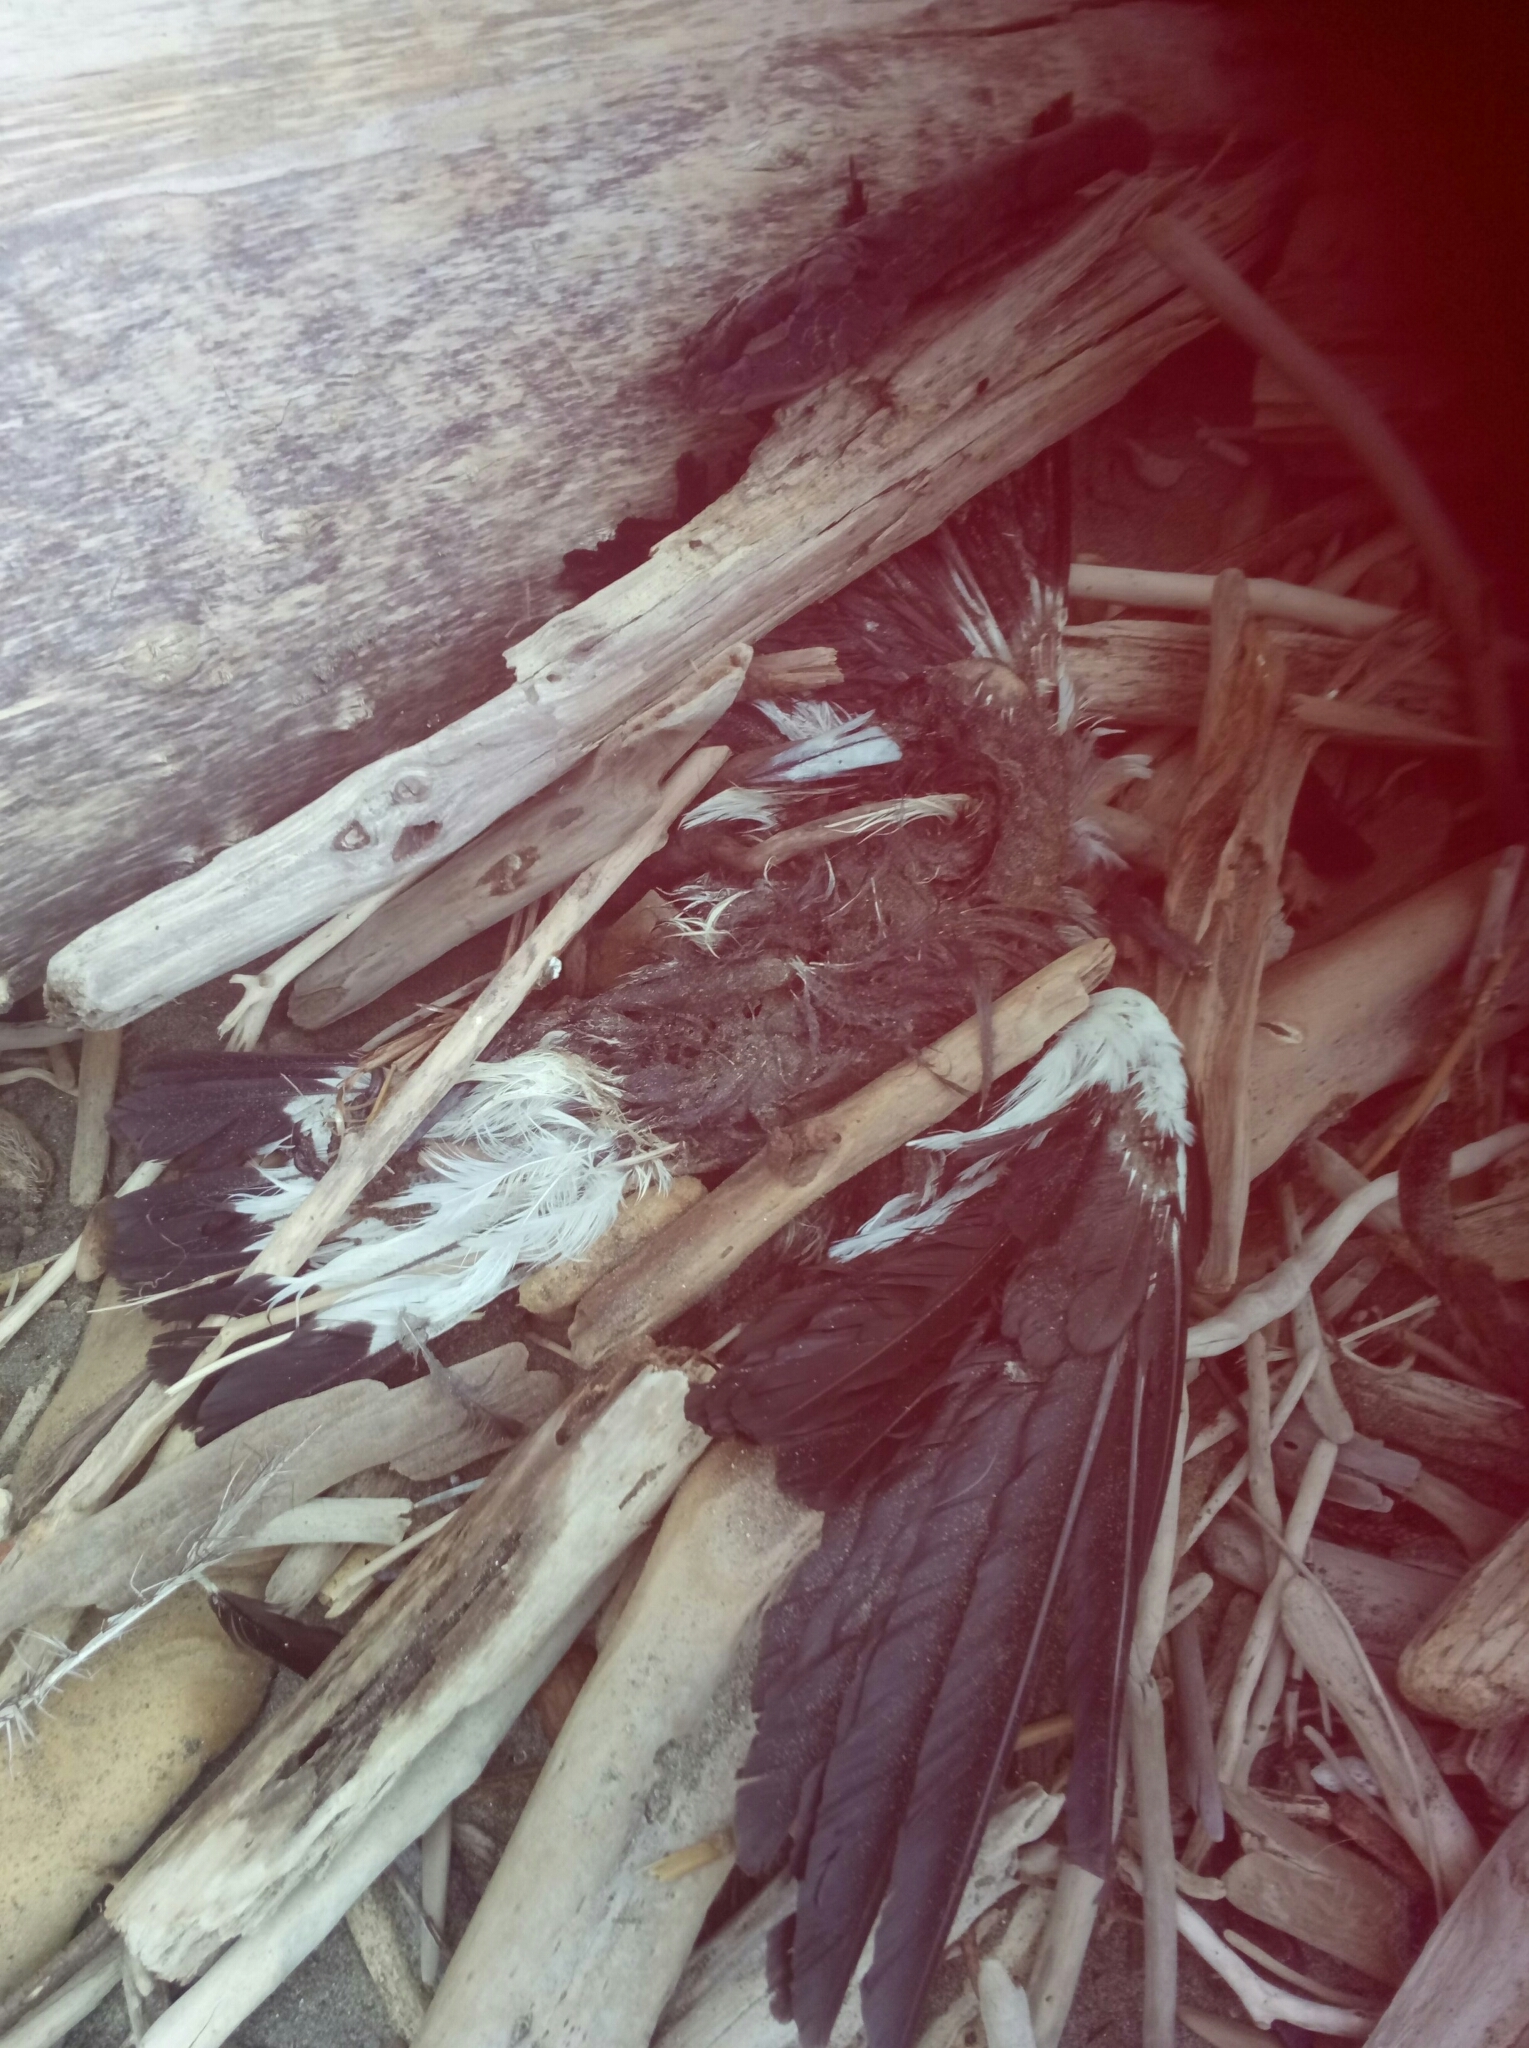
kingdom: Animalia
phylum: Chordata
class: Aves
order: Passeriformes
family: Cracticidae
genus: Gymnorhina
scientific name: Gymnorhina tibicen
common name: Australian magpie
